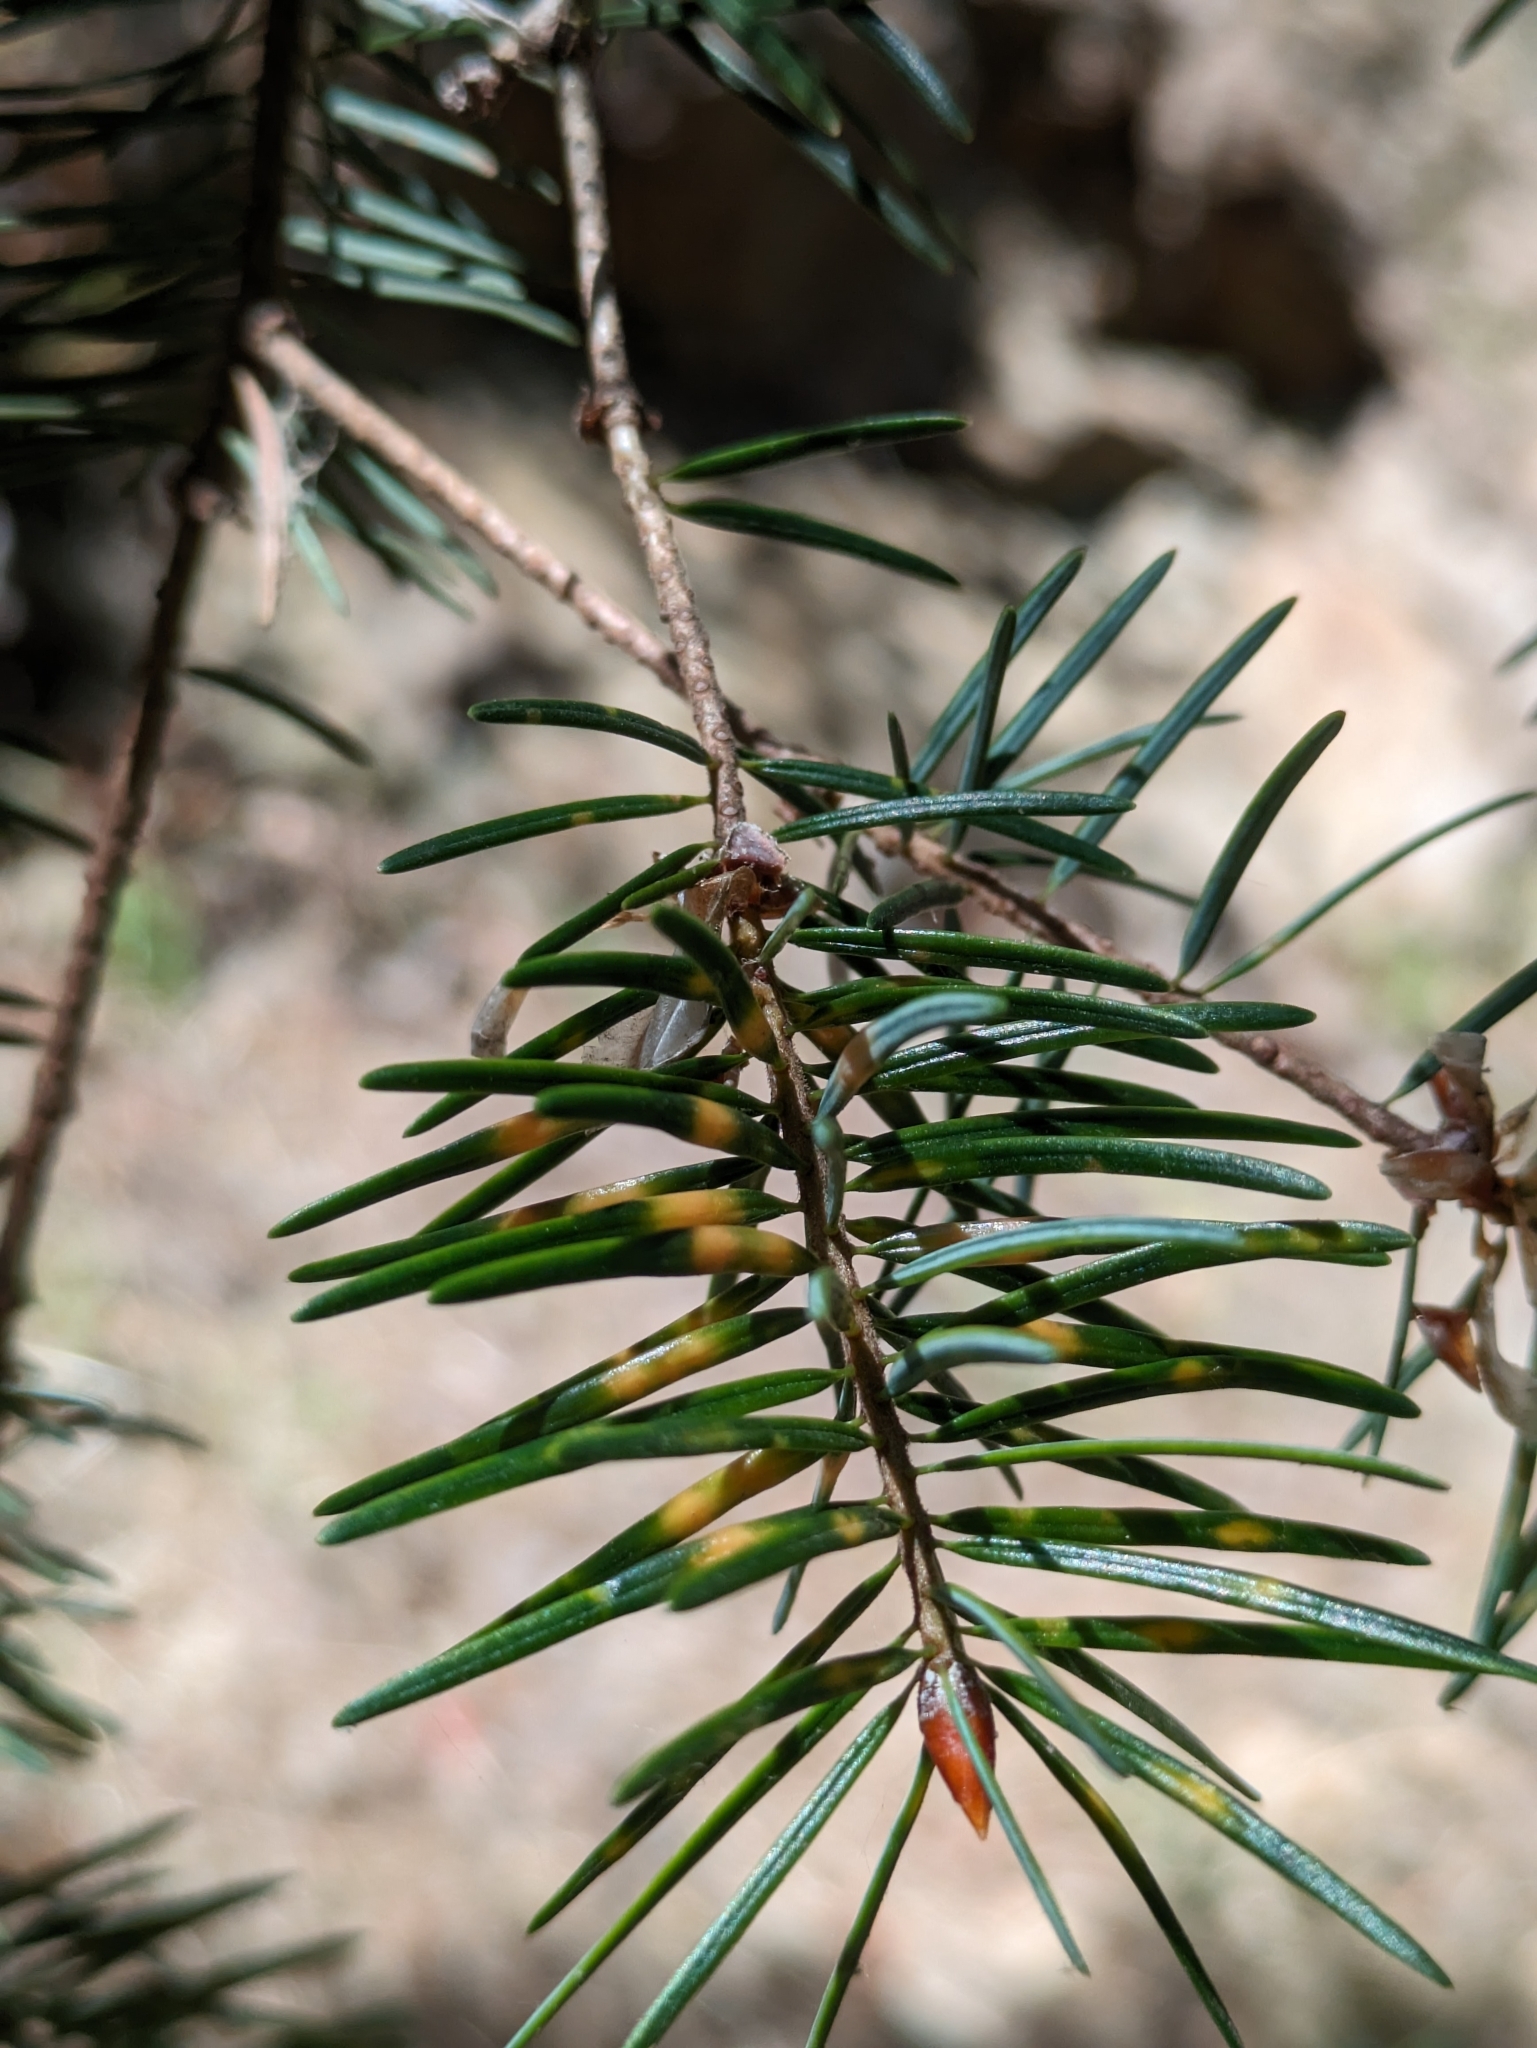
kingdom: Plantae
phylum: Tracheophyta
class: Pinopsida
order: Pinales
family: Pinaceae
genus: Pseudotsuga
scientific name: Pseudotsuga macrocarpa
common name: Big-cone douglas-fir
